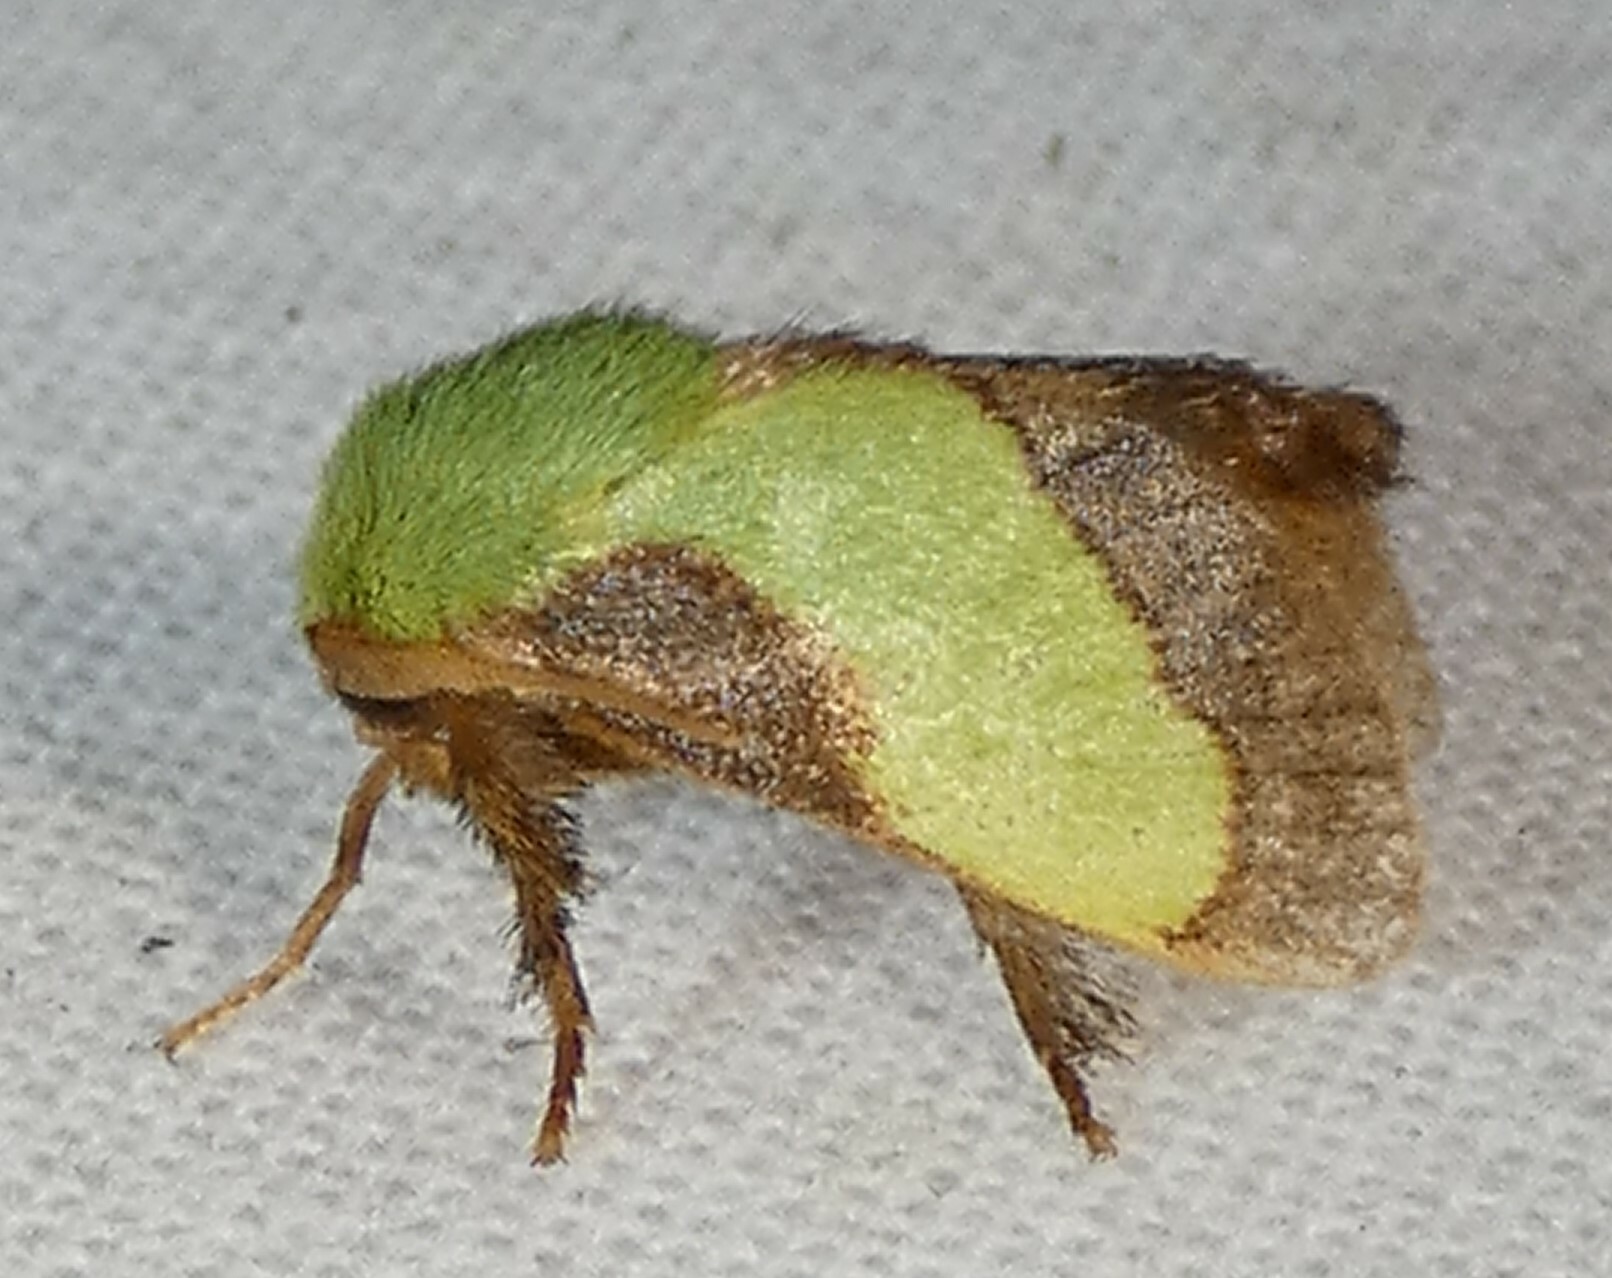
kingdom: Animalia
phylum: Arthropoda
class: Insecta
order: Lepidoptera
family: Limacodidae
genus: Parasa
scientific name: Parasa chloris
